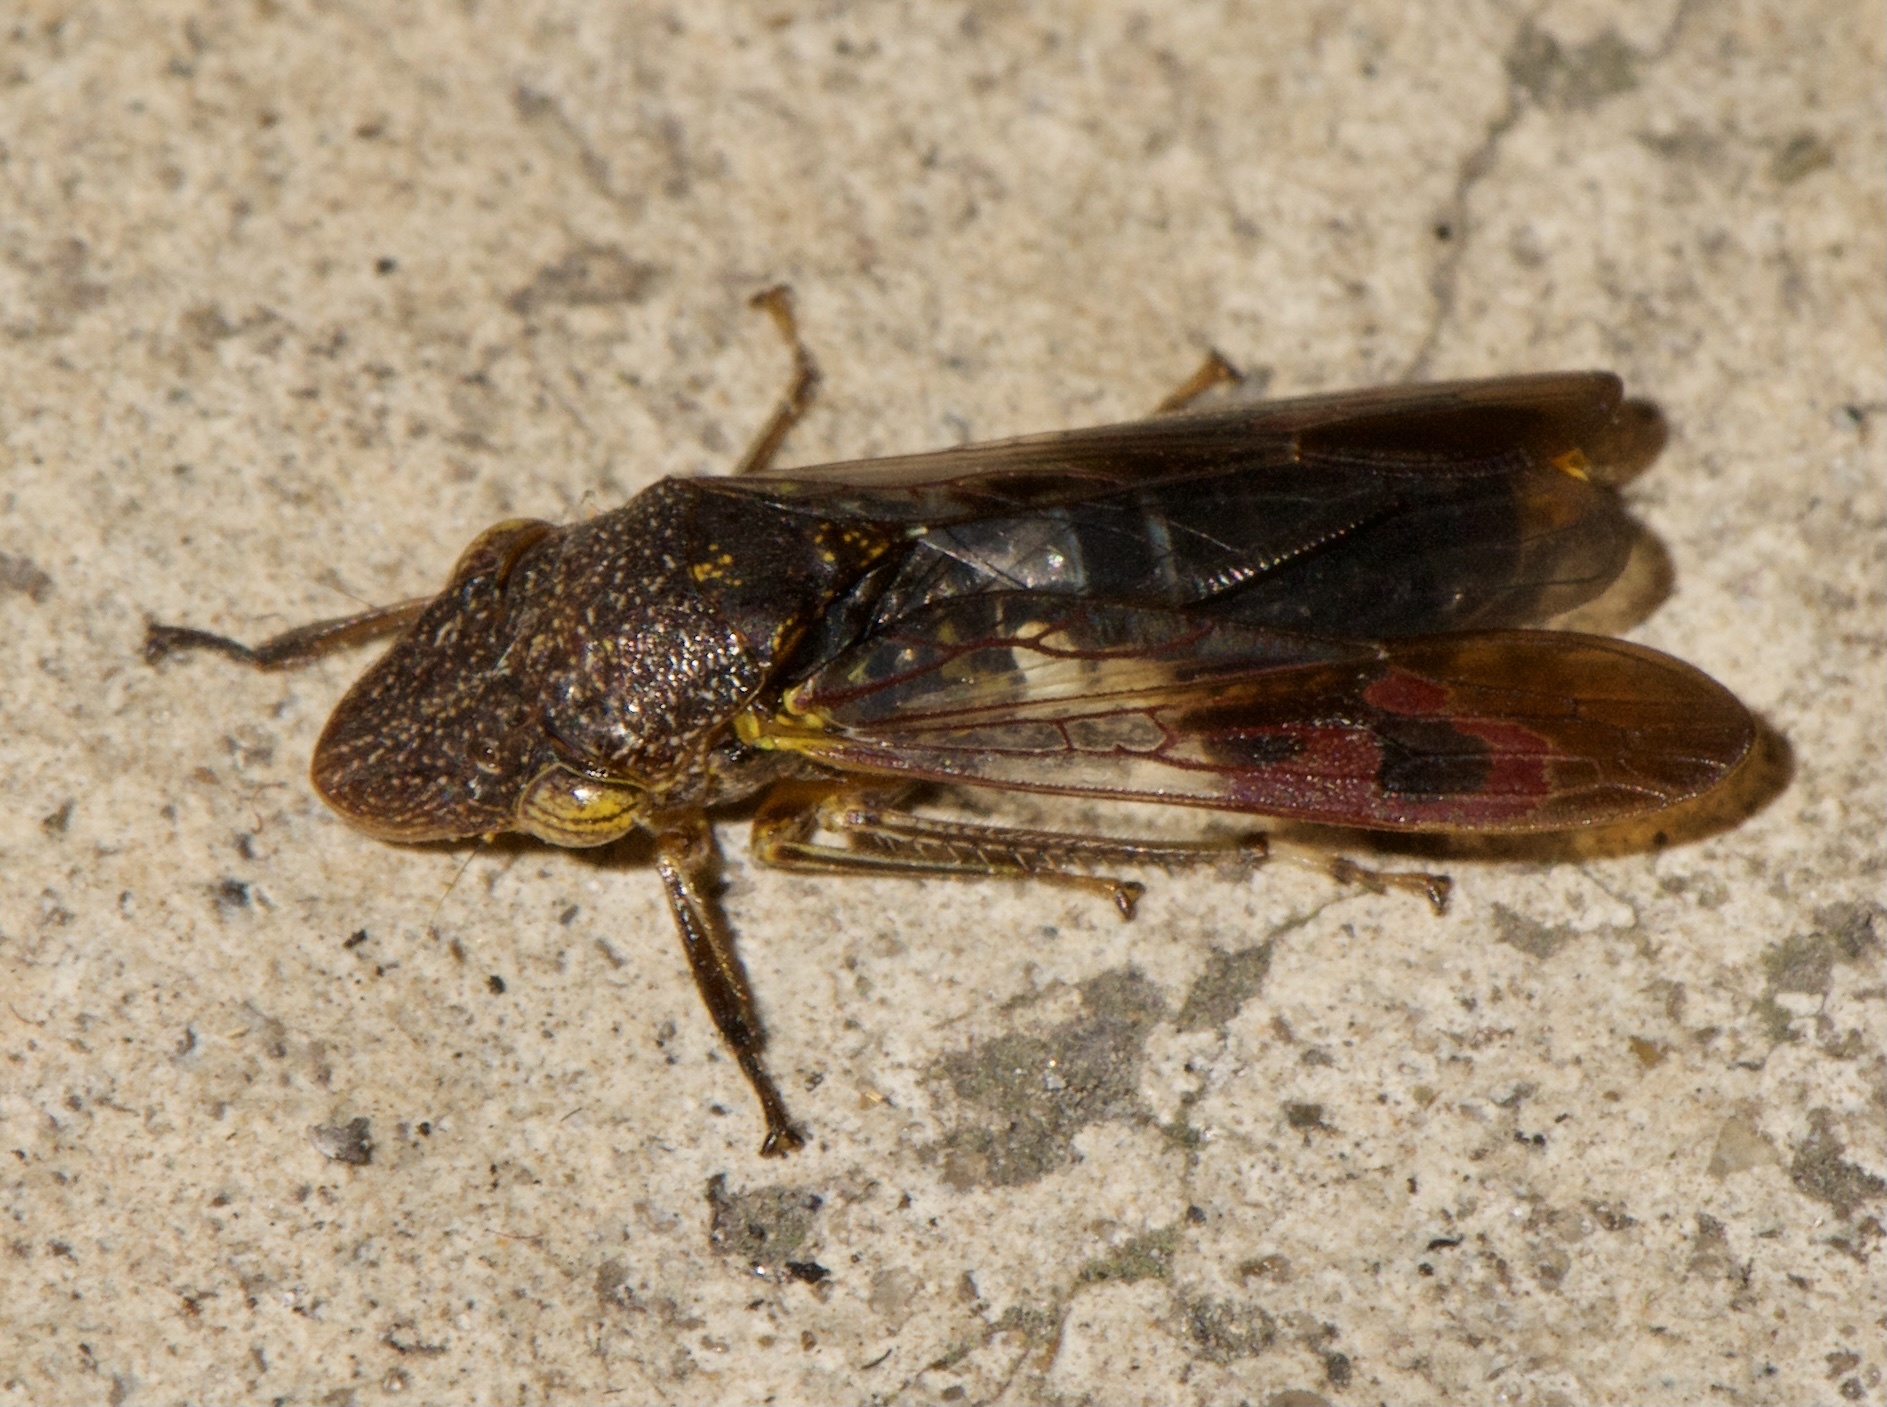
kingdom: Animalia
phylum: Arthropoda
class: Insecta
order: Hemiptera
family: Cicadellidae
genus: Homalodisca
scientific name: Homalodisca vitripennis
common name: Glassy-winged sharpshooter
